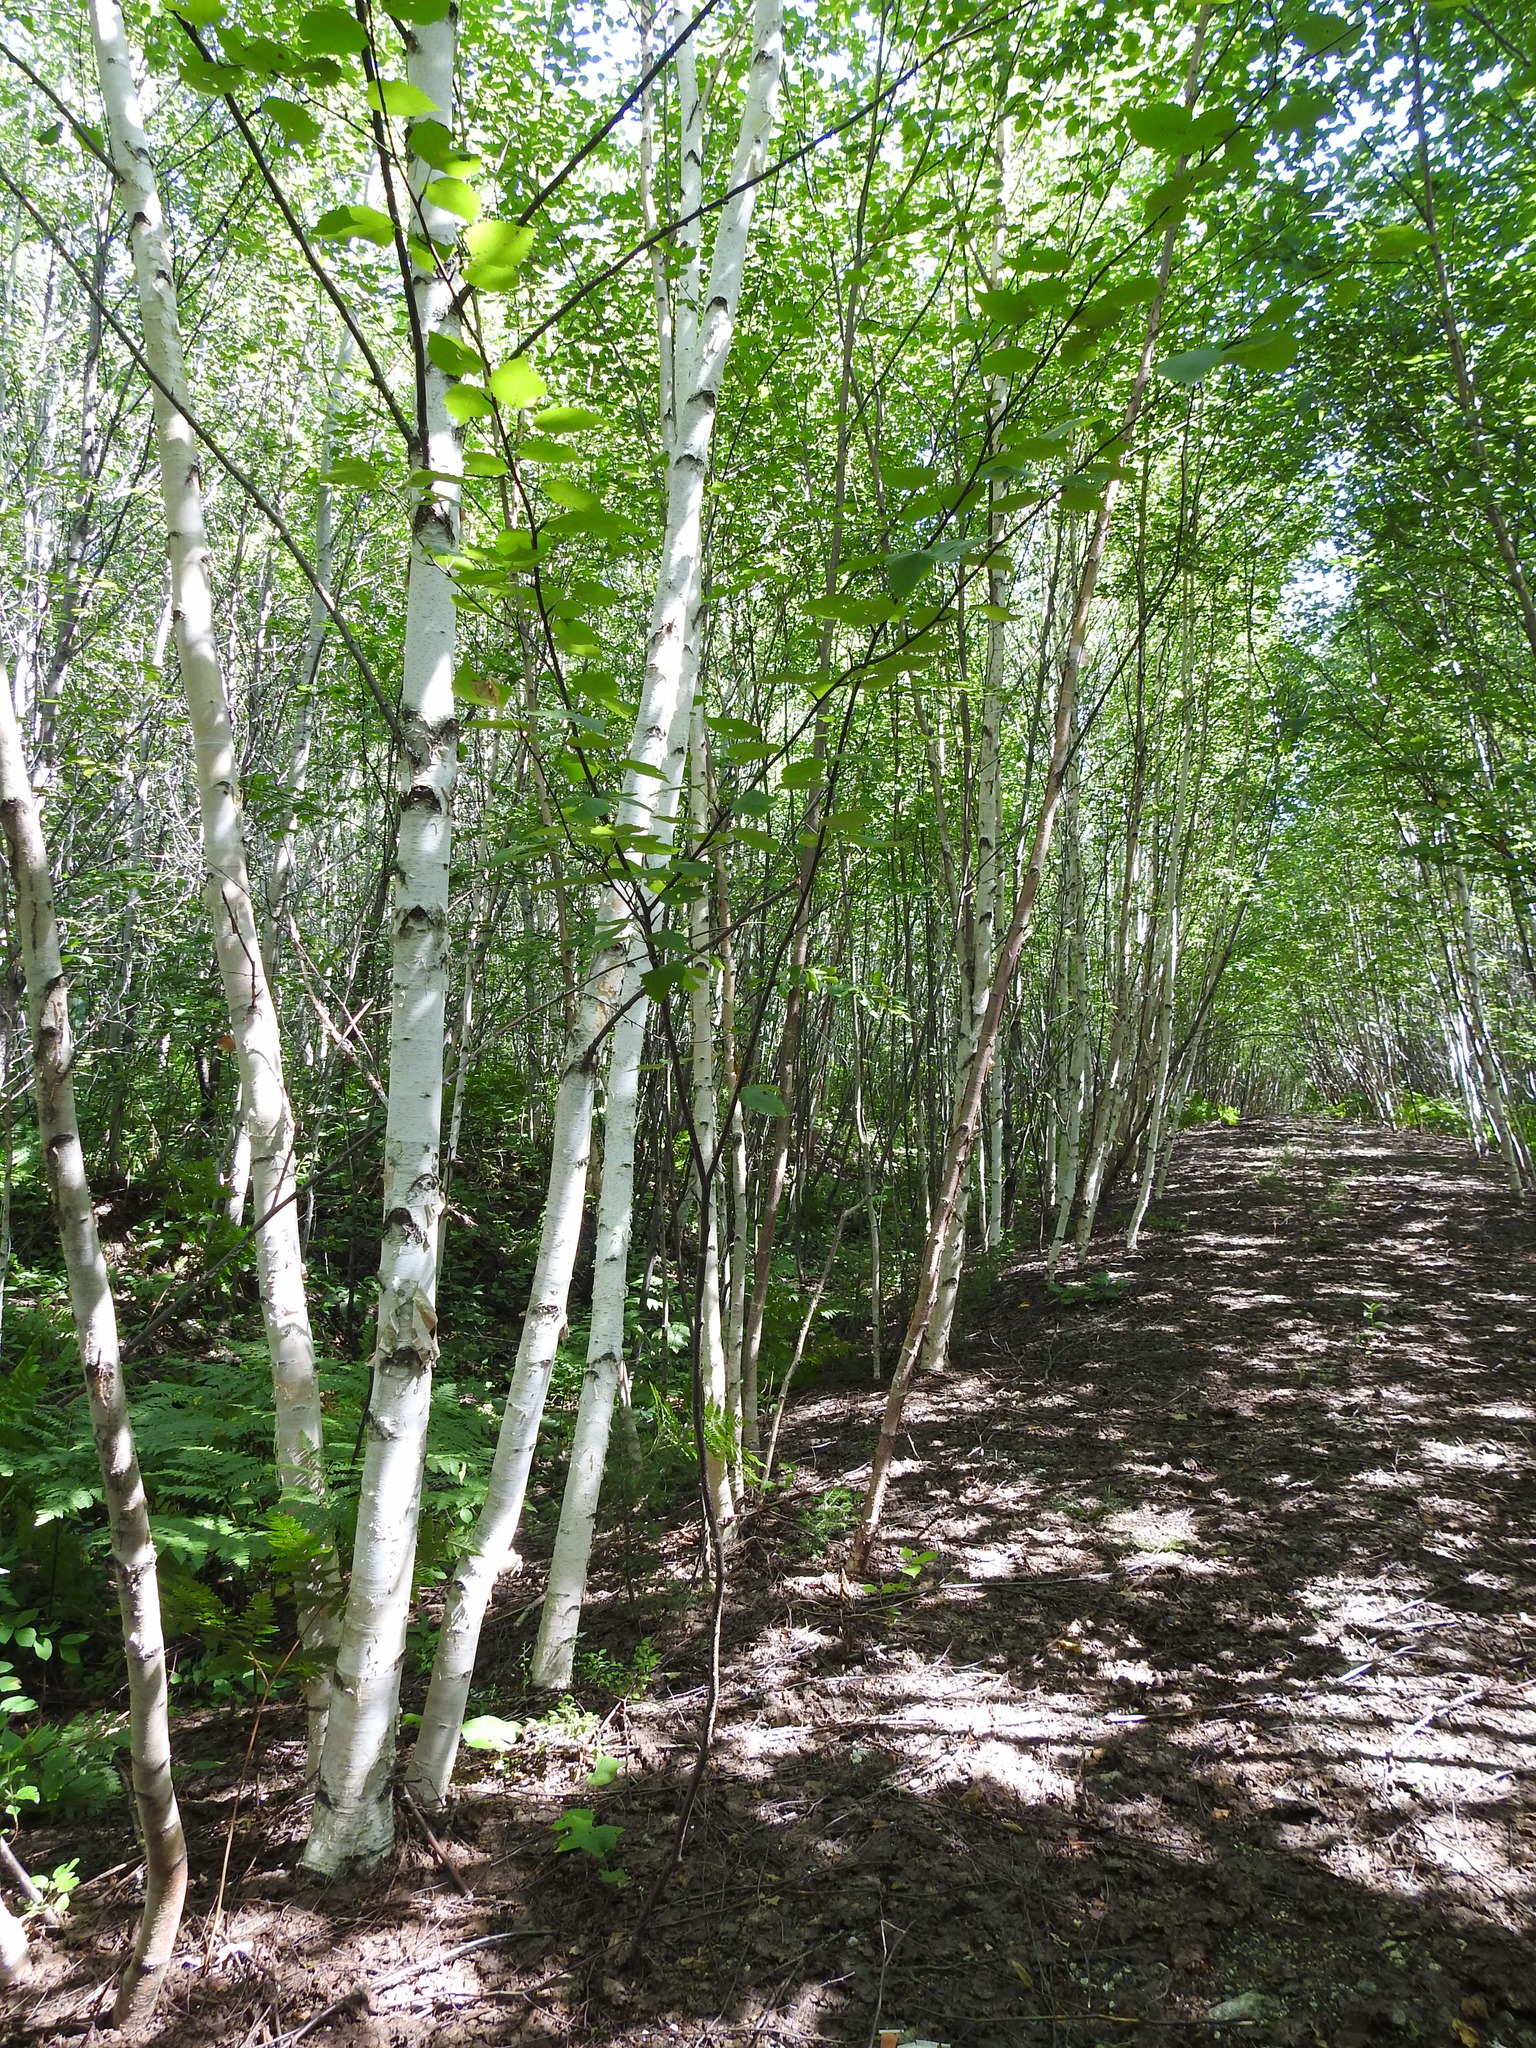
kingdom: Plantae
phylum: Tracheophyta
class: Magnoliopsida
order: Fagales
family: Betulaceae
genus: Betula
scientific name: Betula papyrifera
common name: Paper birch
